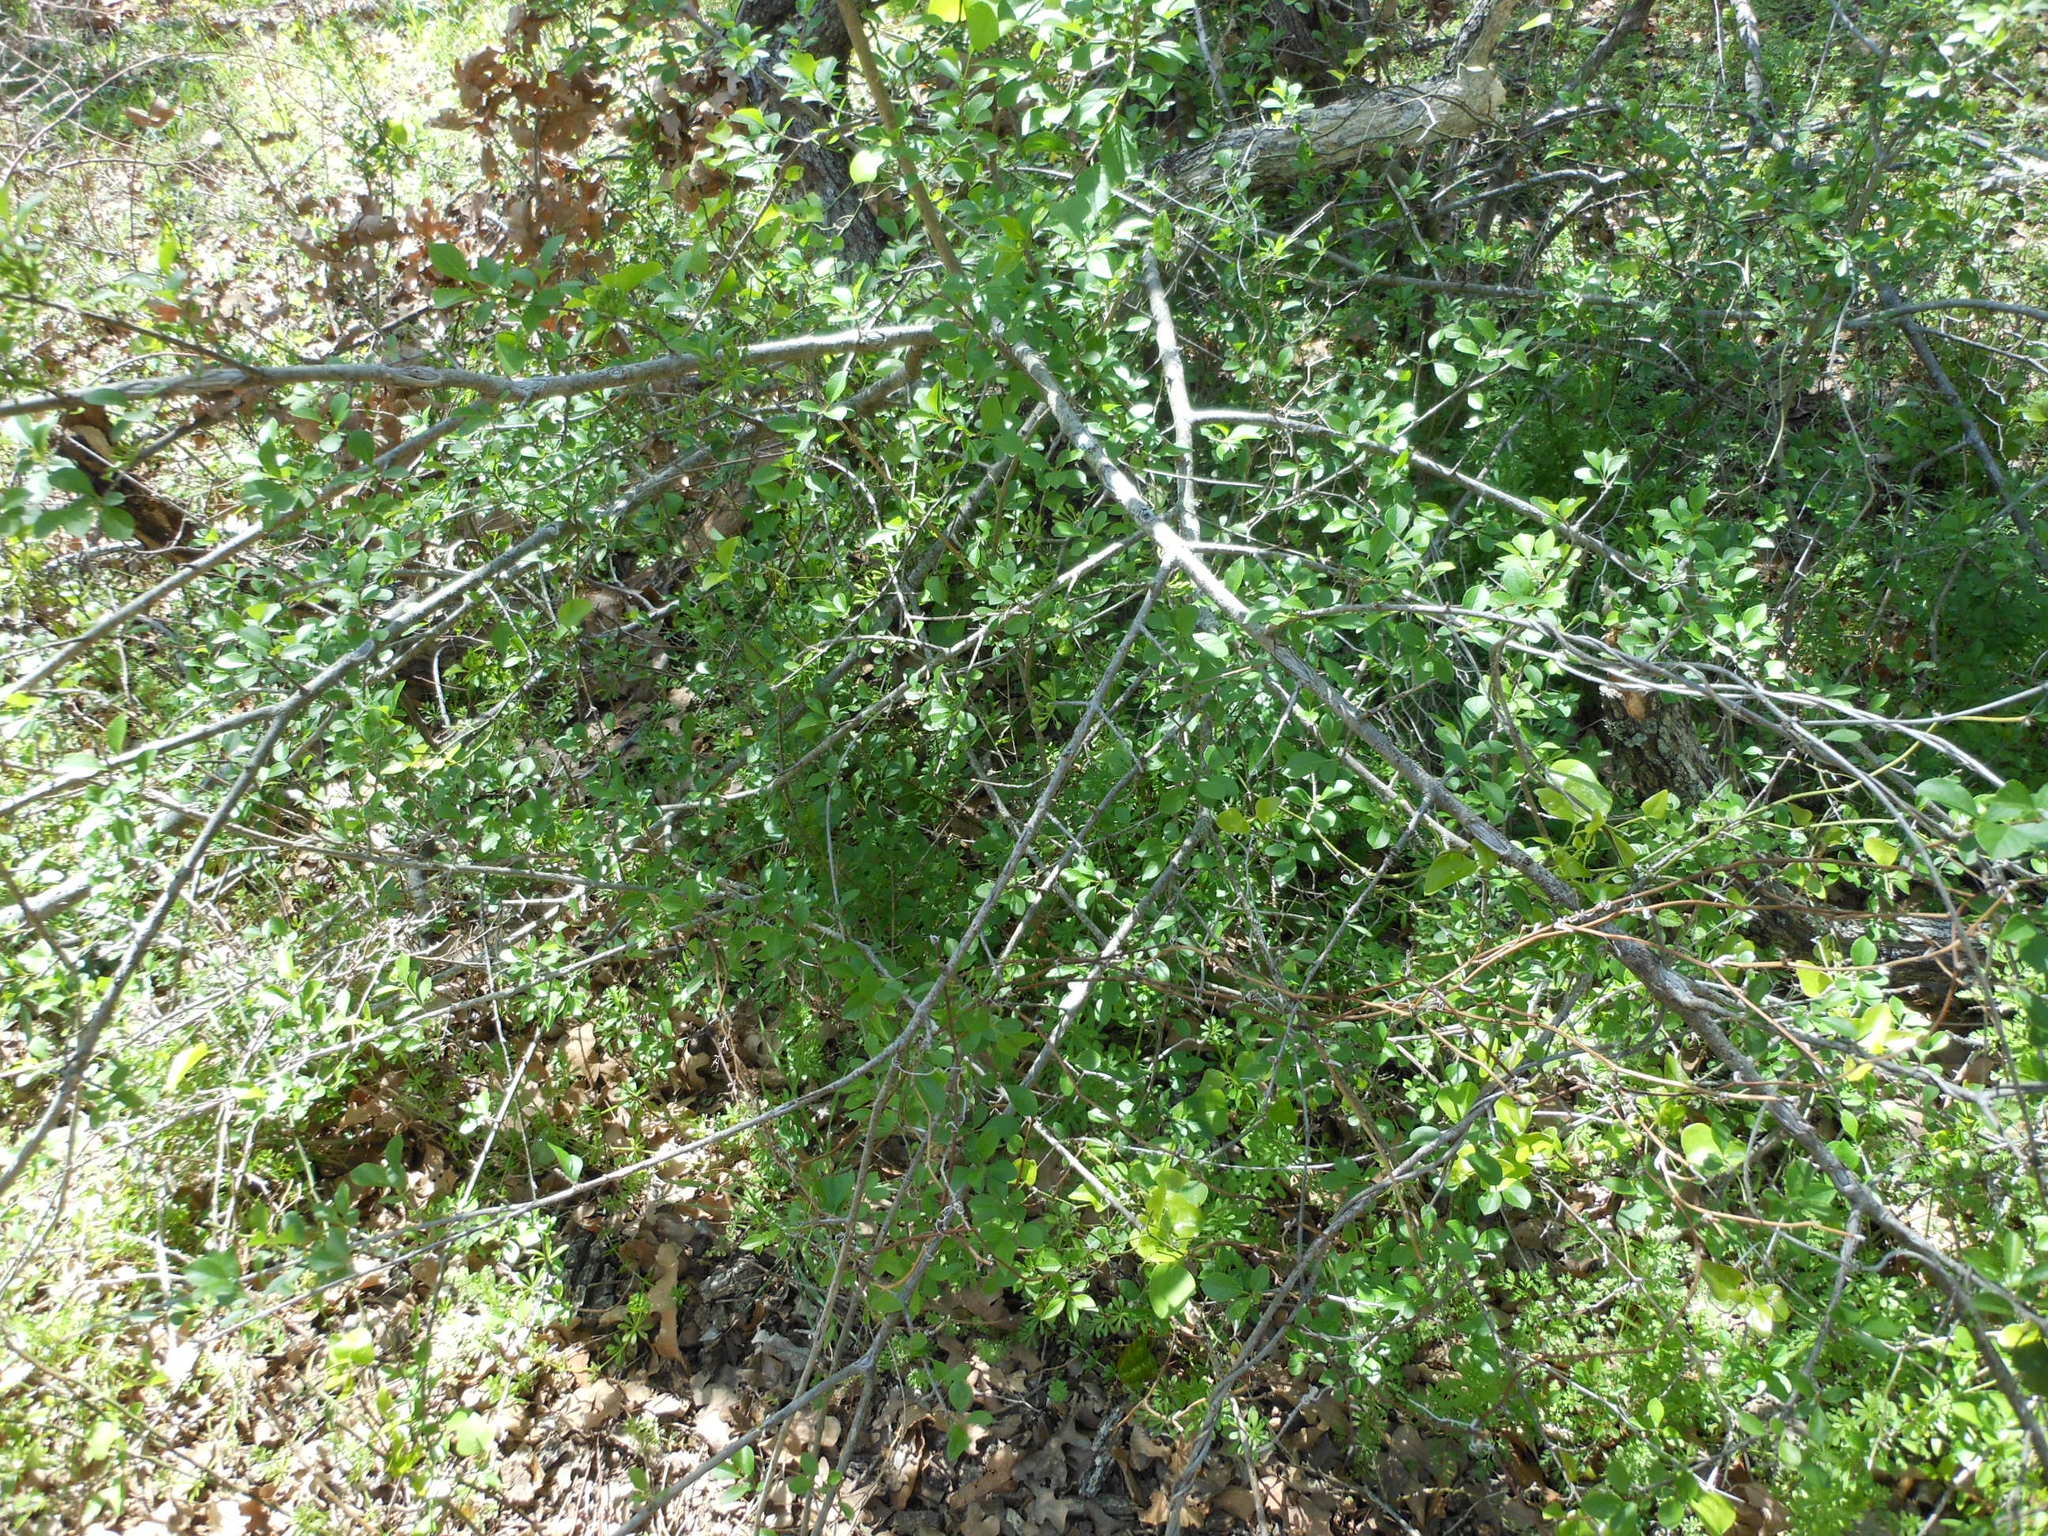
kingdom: Plantae
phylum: Tracheophyta
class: Magnoliopsida
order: Lamiales
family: Oleaceae
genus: Forestiera
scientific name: Forestiera pubescens
